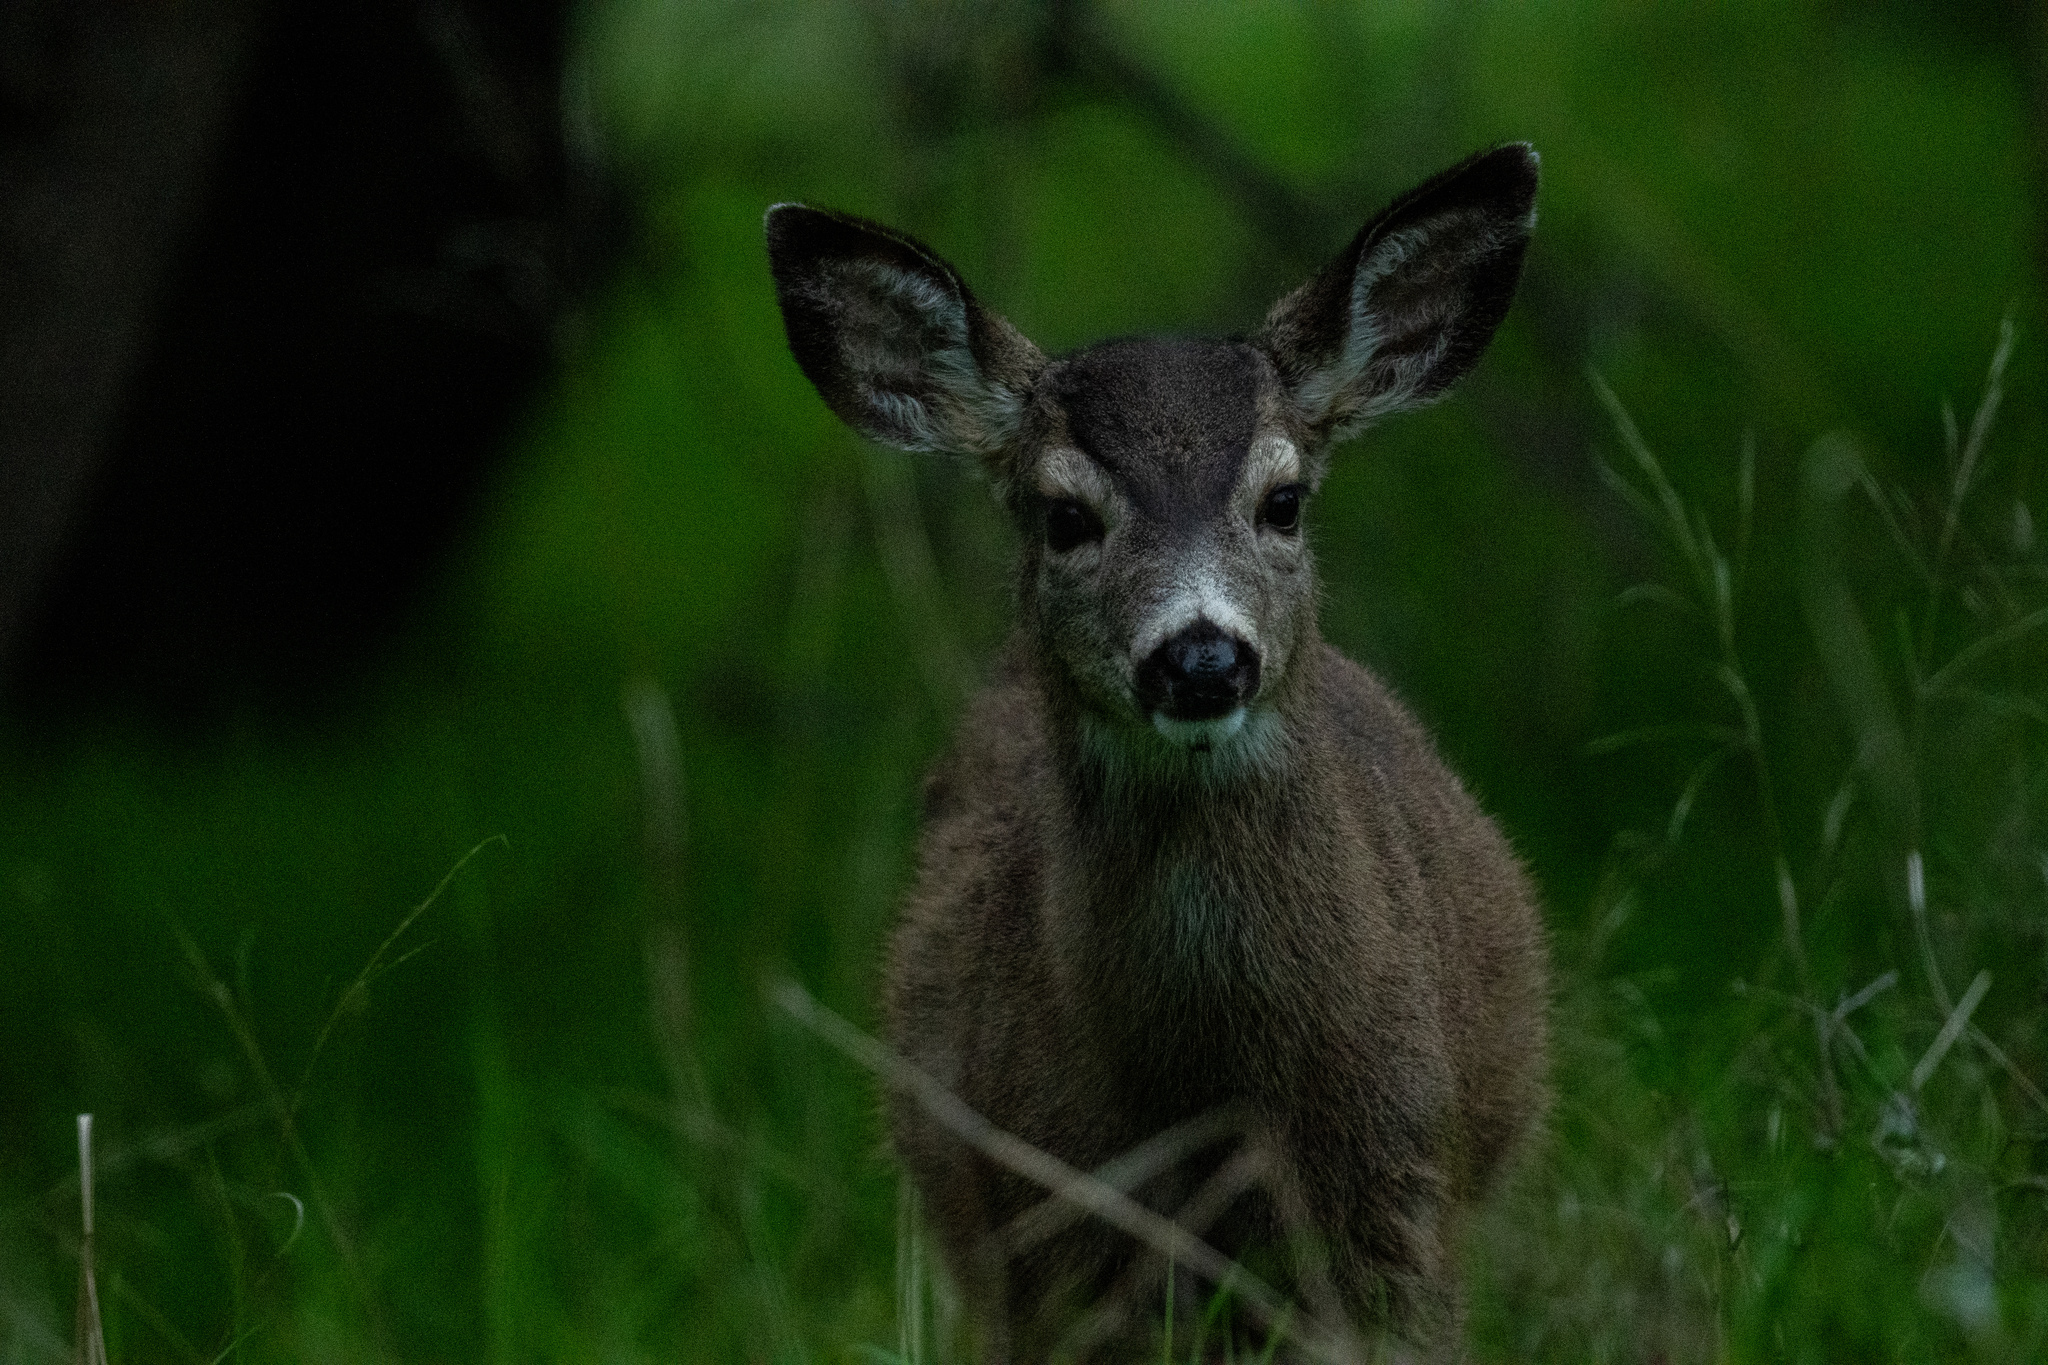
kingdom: Animalia
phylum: Chordata
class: Mammalia
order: Artiodactyla
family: Cervidae
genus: Odocoileus
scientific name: Odocoileus hemionus
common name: Mule deer
